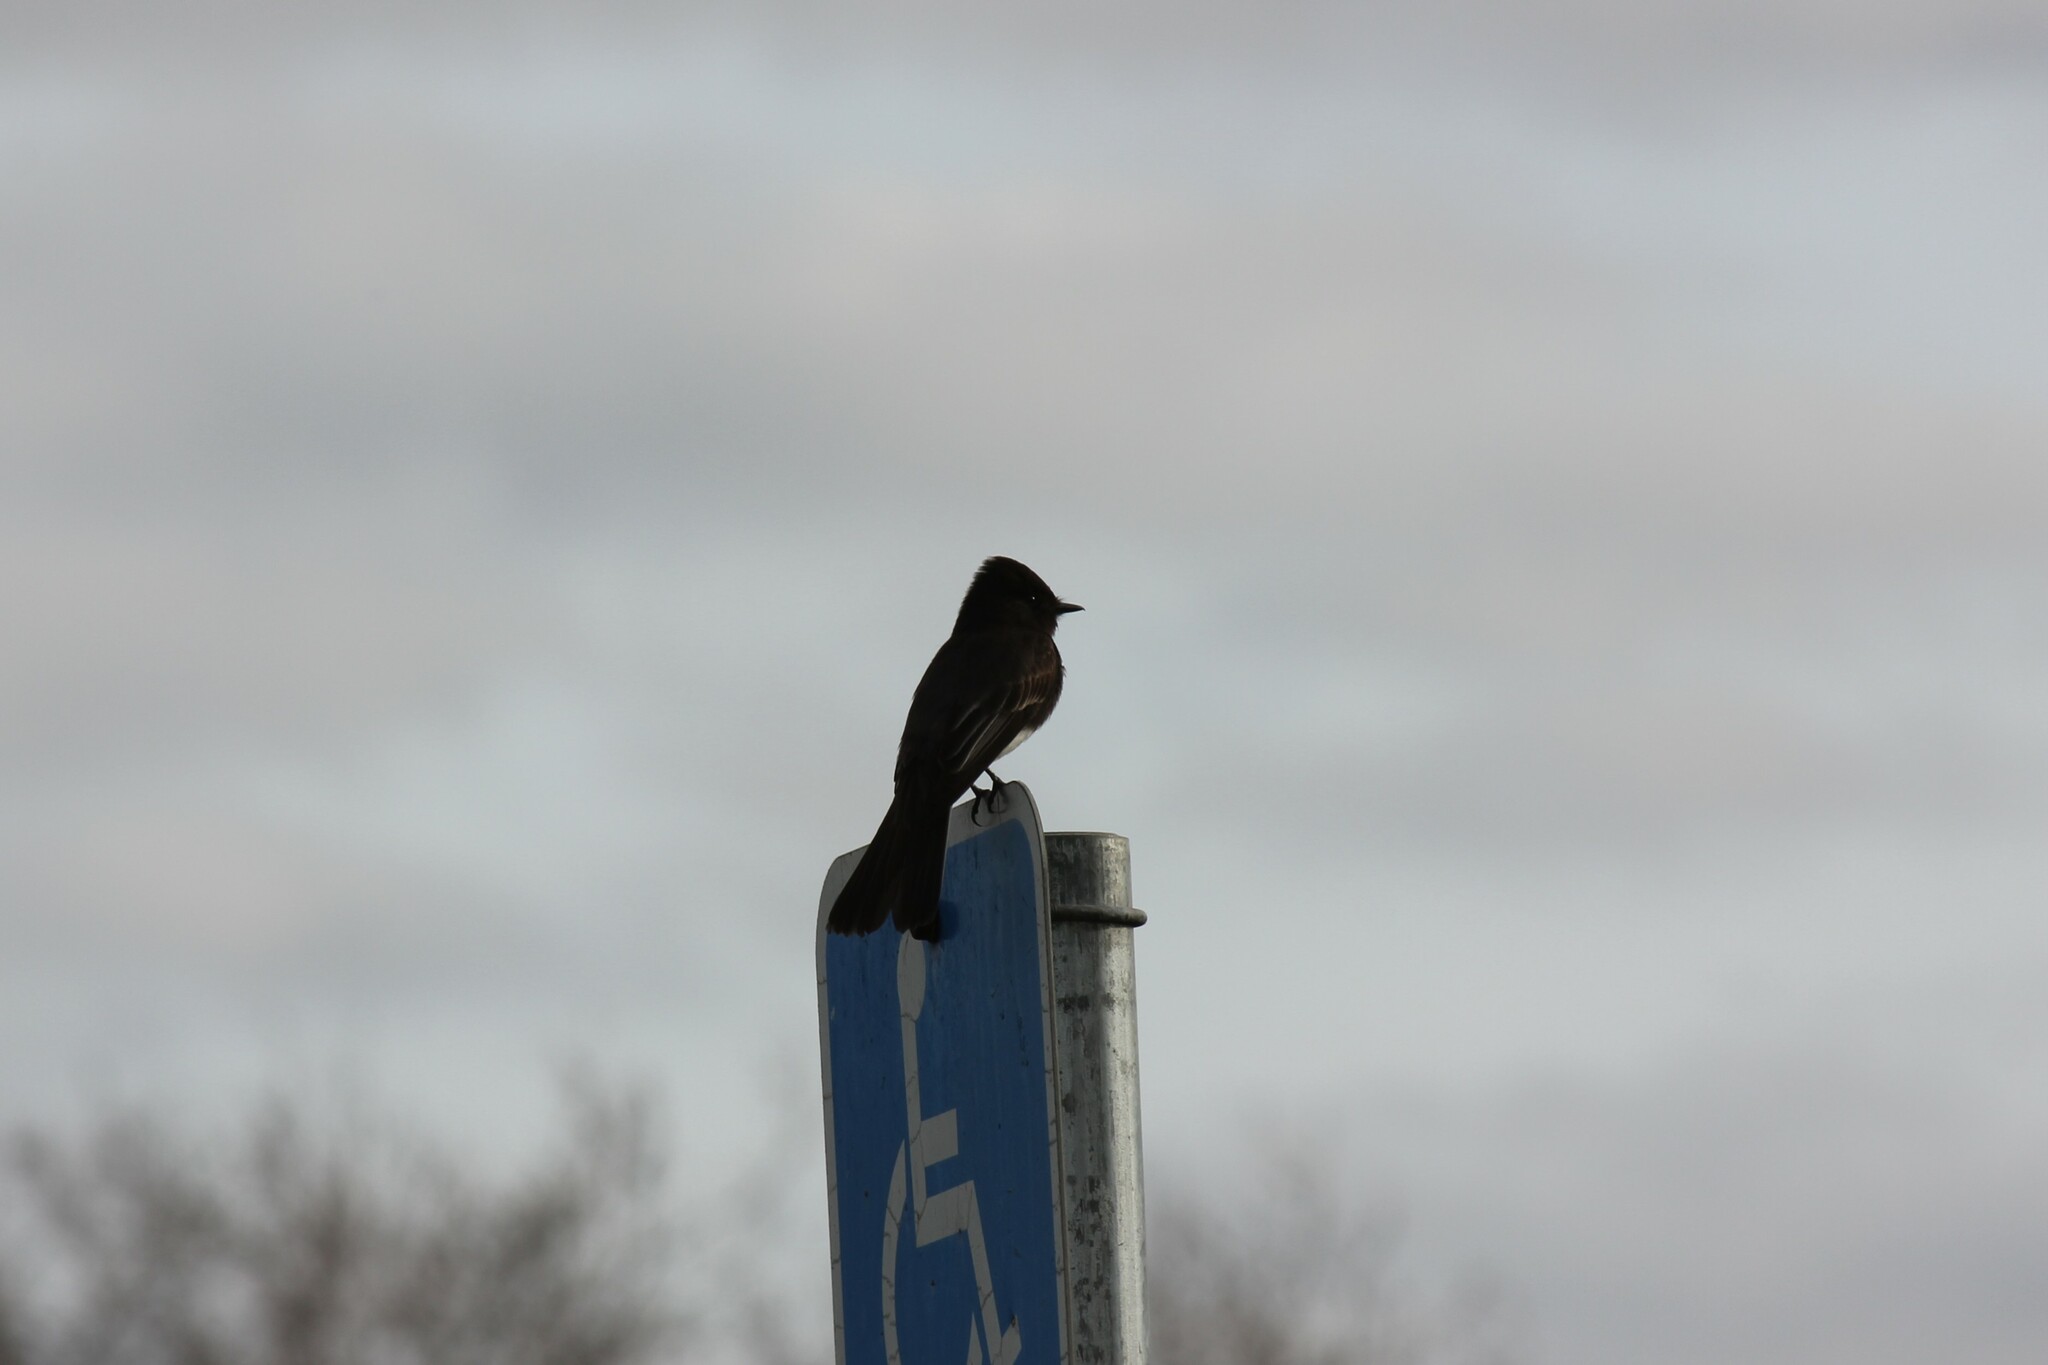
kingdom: Animalia
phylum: Chordata
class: Aves
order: Passeriformes
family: Tyrannidae
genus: Sayornis
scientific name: Sayornis nigricans
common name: Black phoebe
